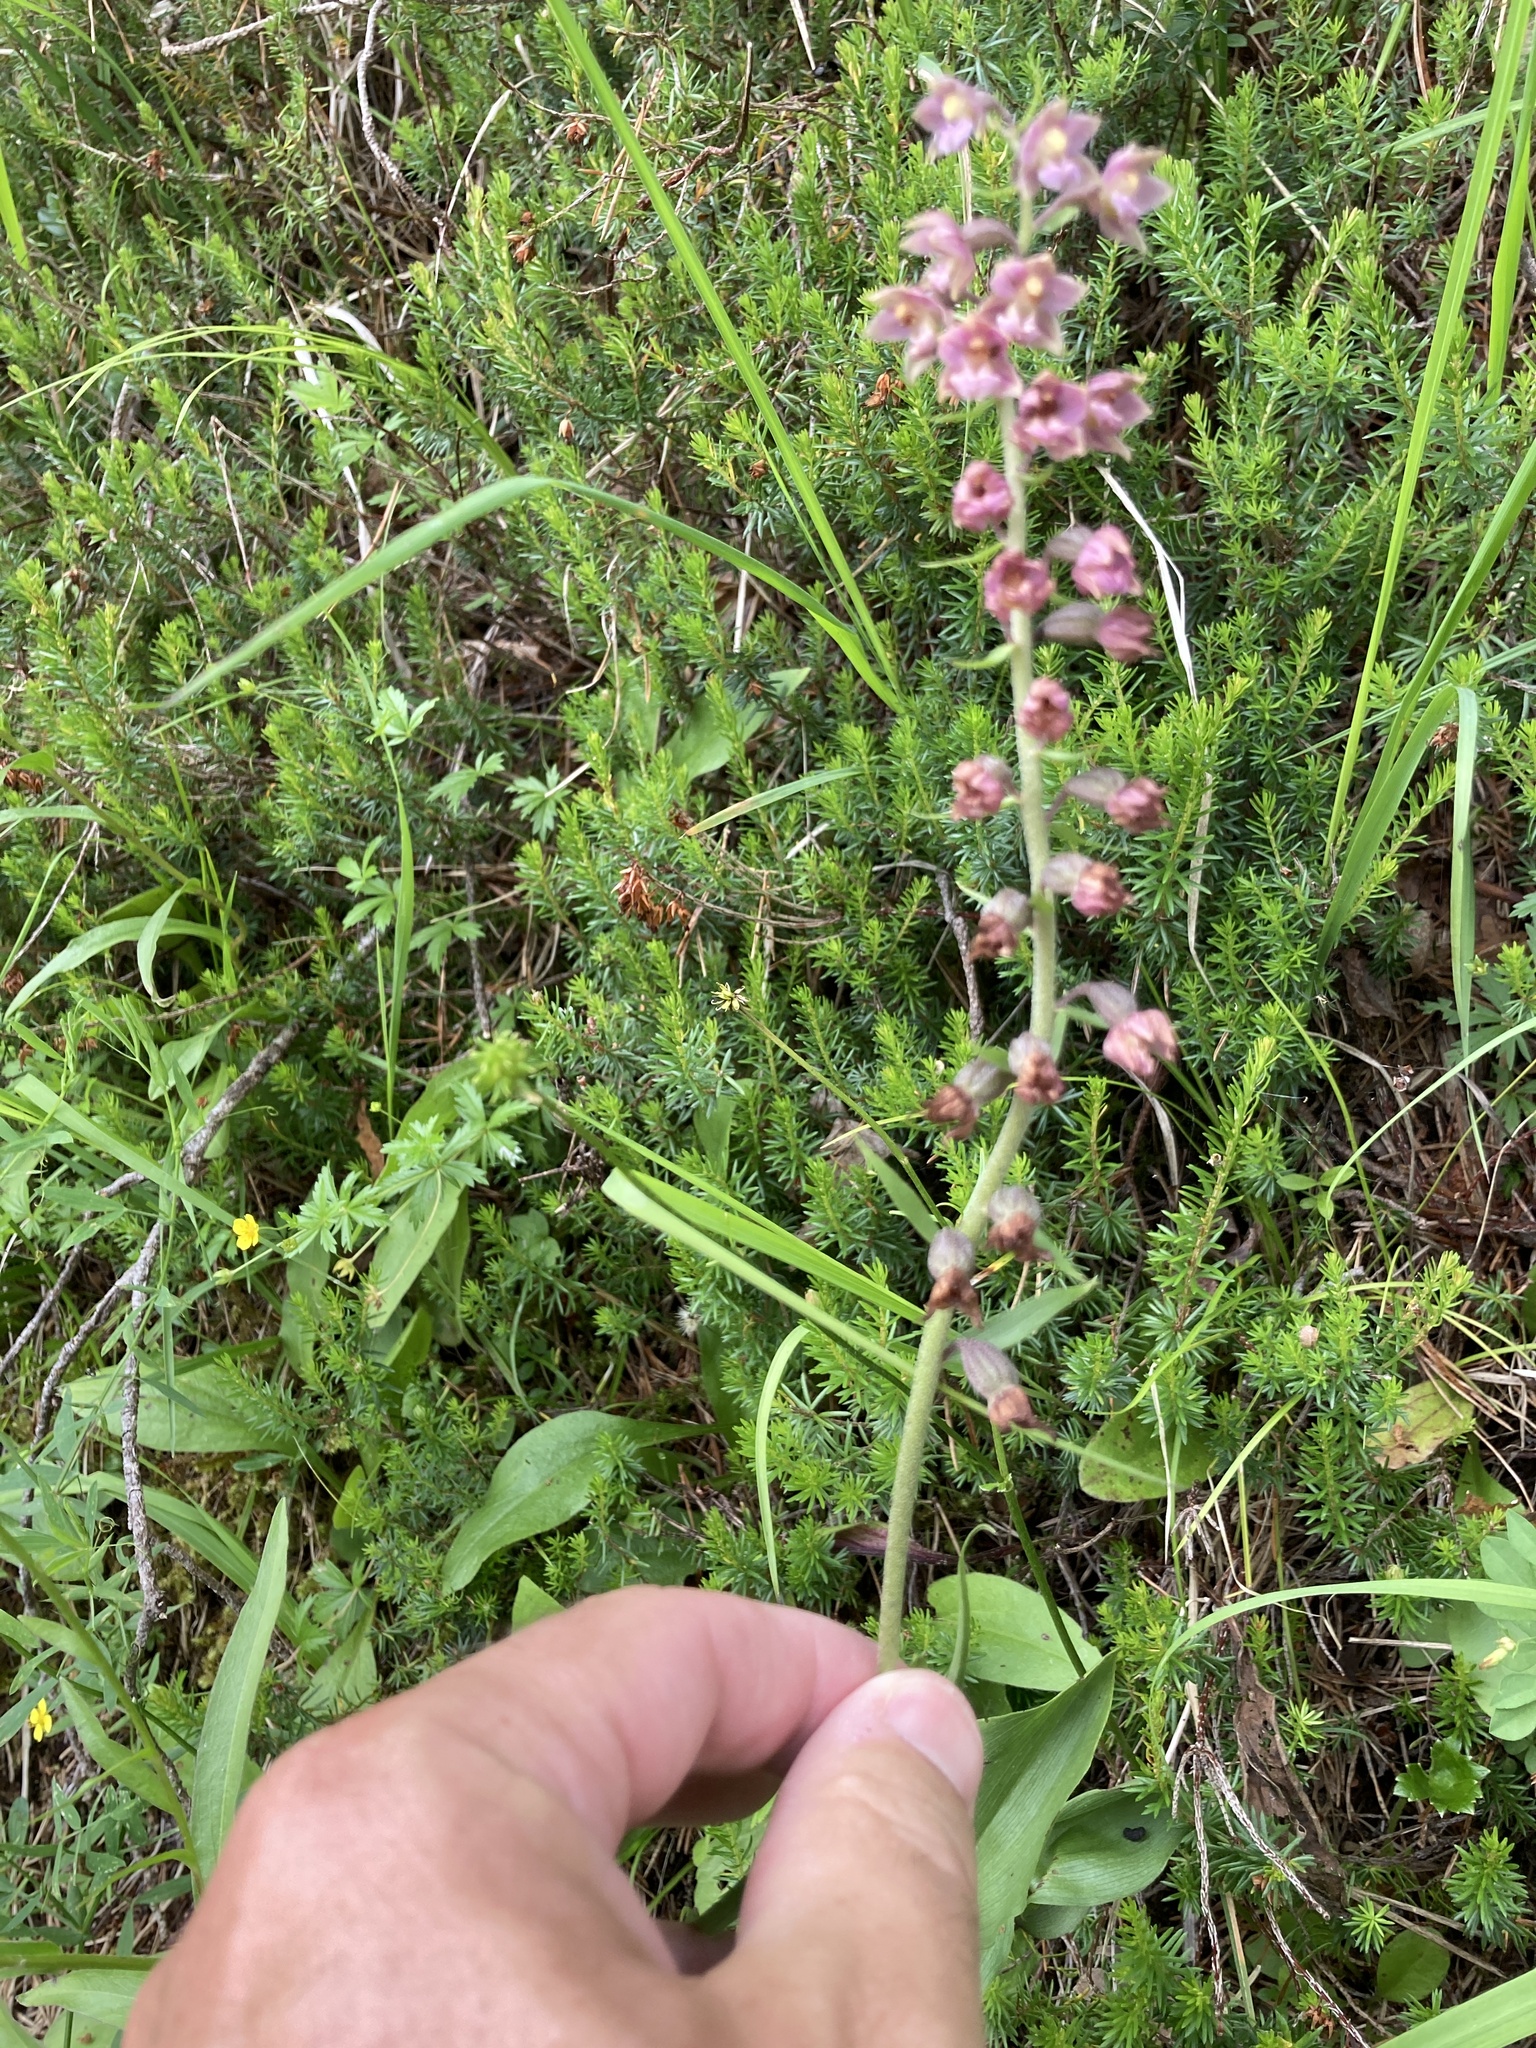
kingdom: Plantae
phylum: Tracheophyta
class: Liliopsida
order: Asparagales
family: Orchidaceae
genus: Epipactis
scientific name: Epipactis atrorubens
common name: Dark-red helleborine
